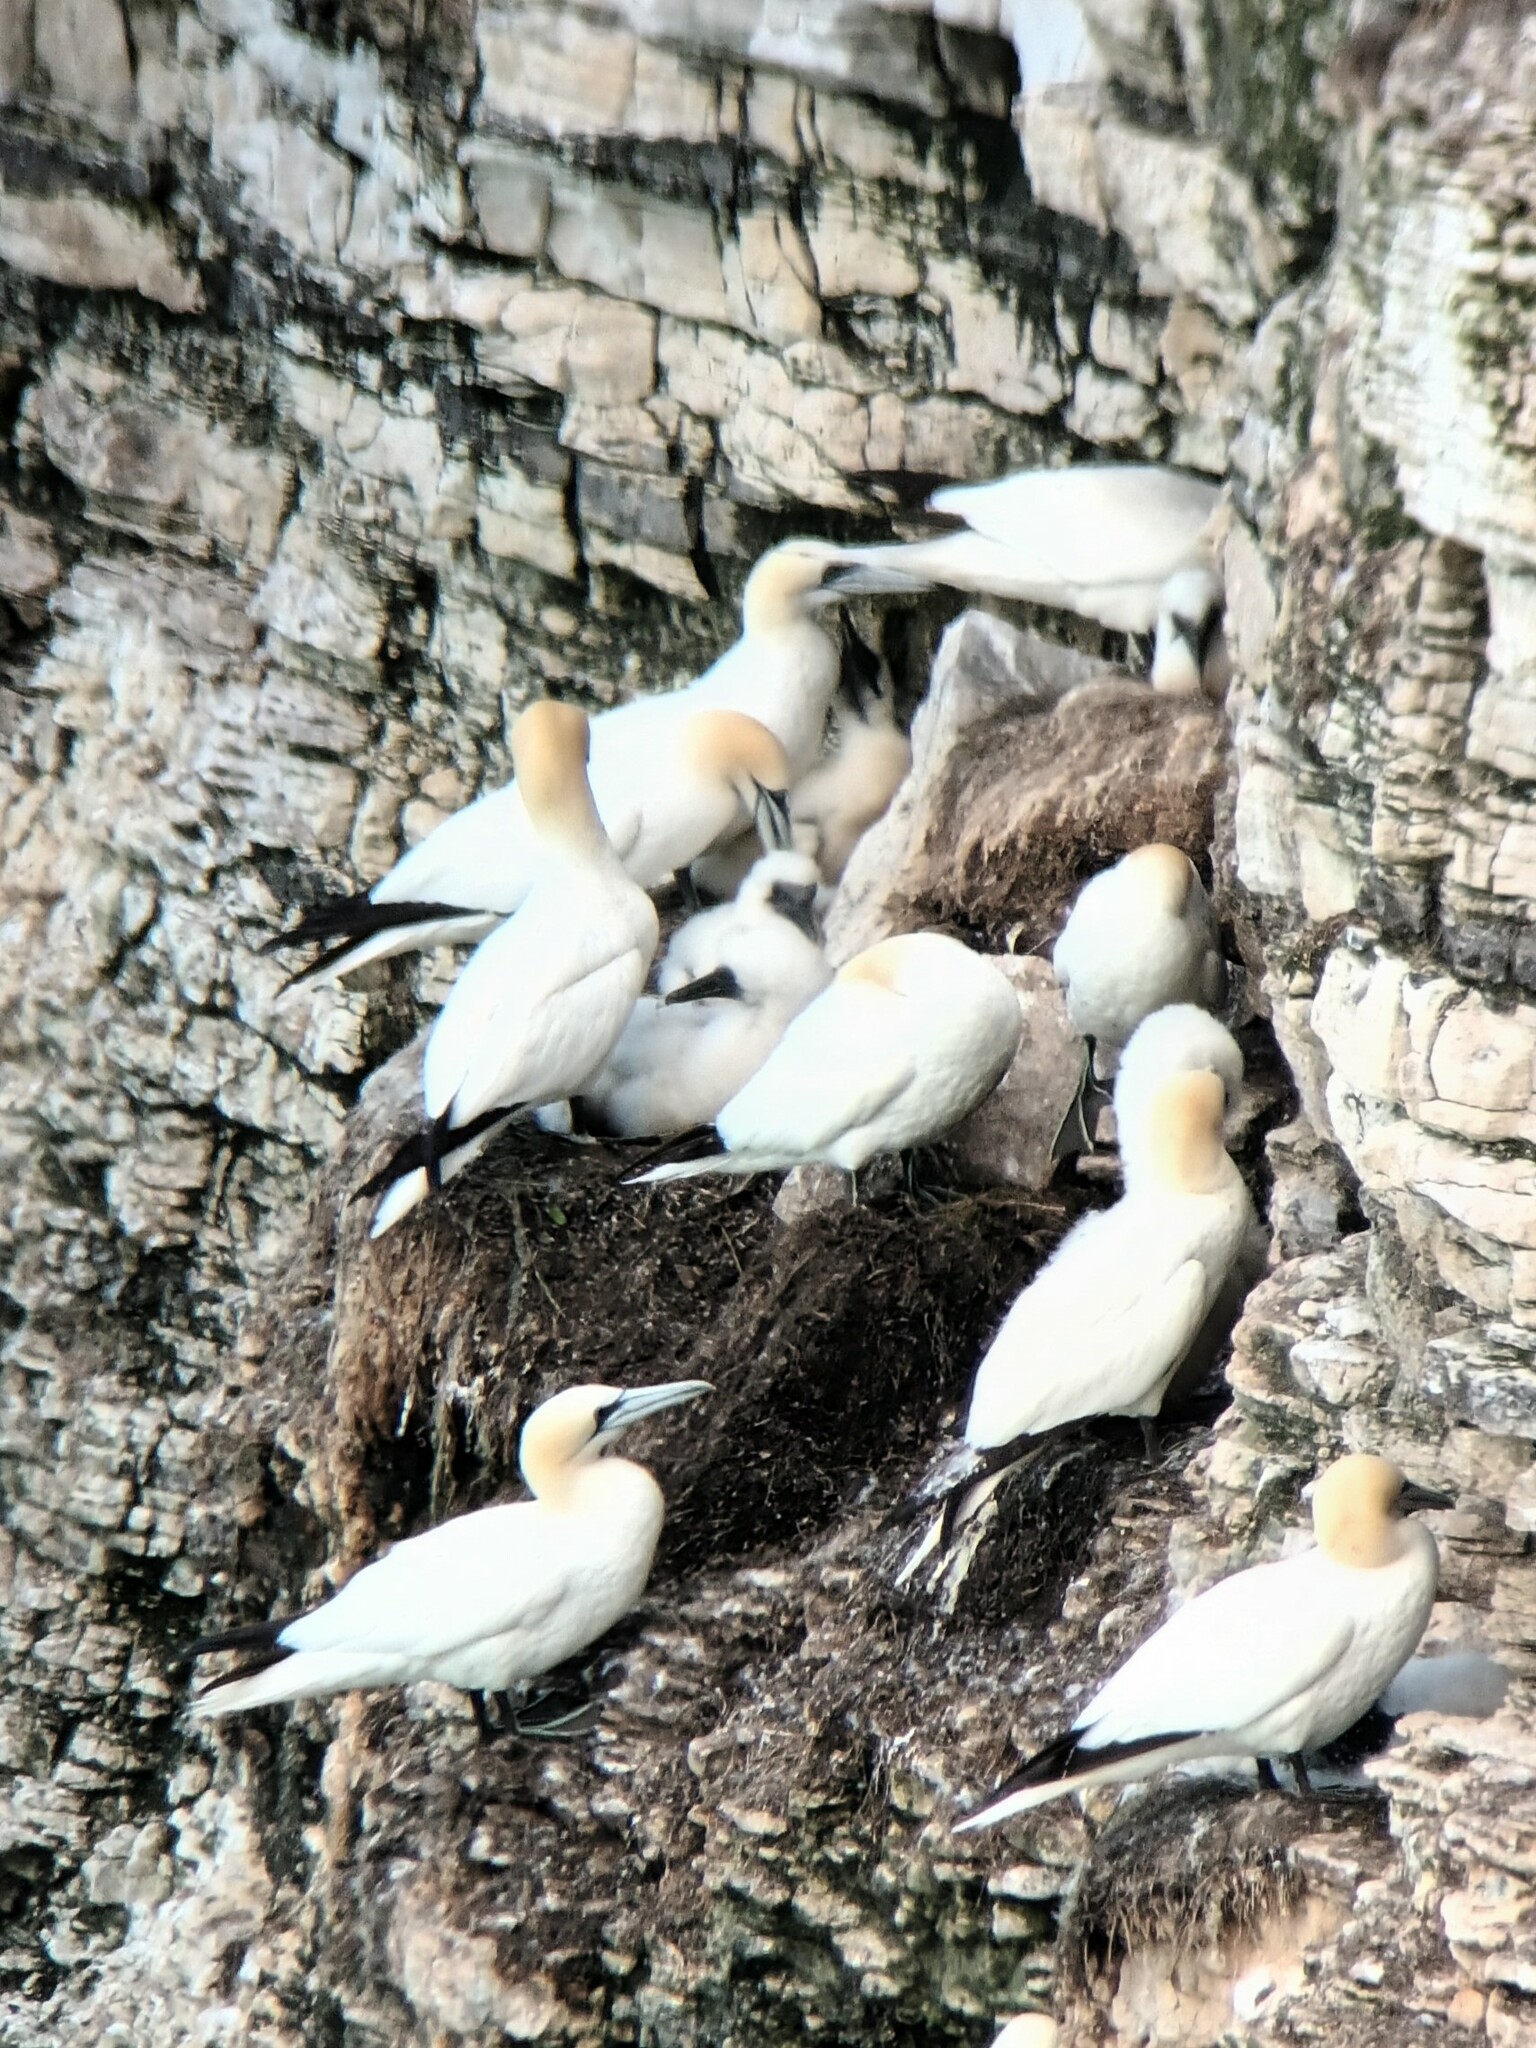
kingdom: Animalia
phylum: Chordata
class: Aves
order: Suliformes
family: Sulidae
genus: Morus
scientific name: Morus bassanus
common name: Northern gannet
